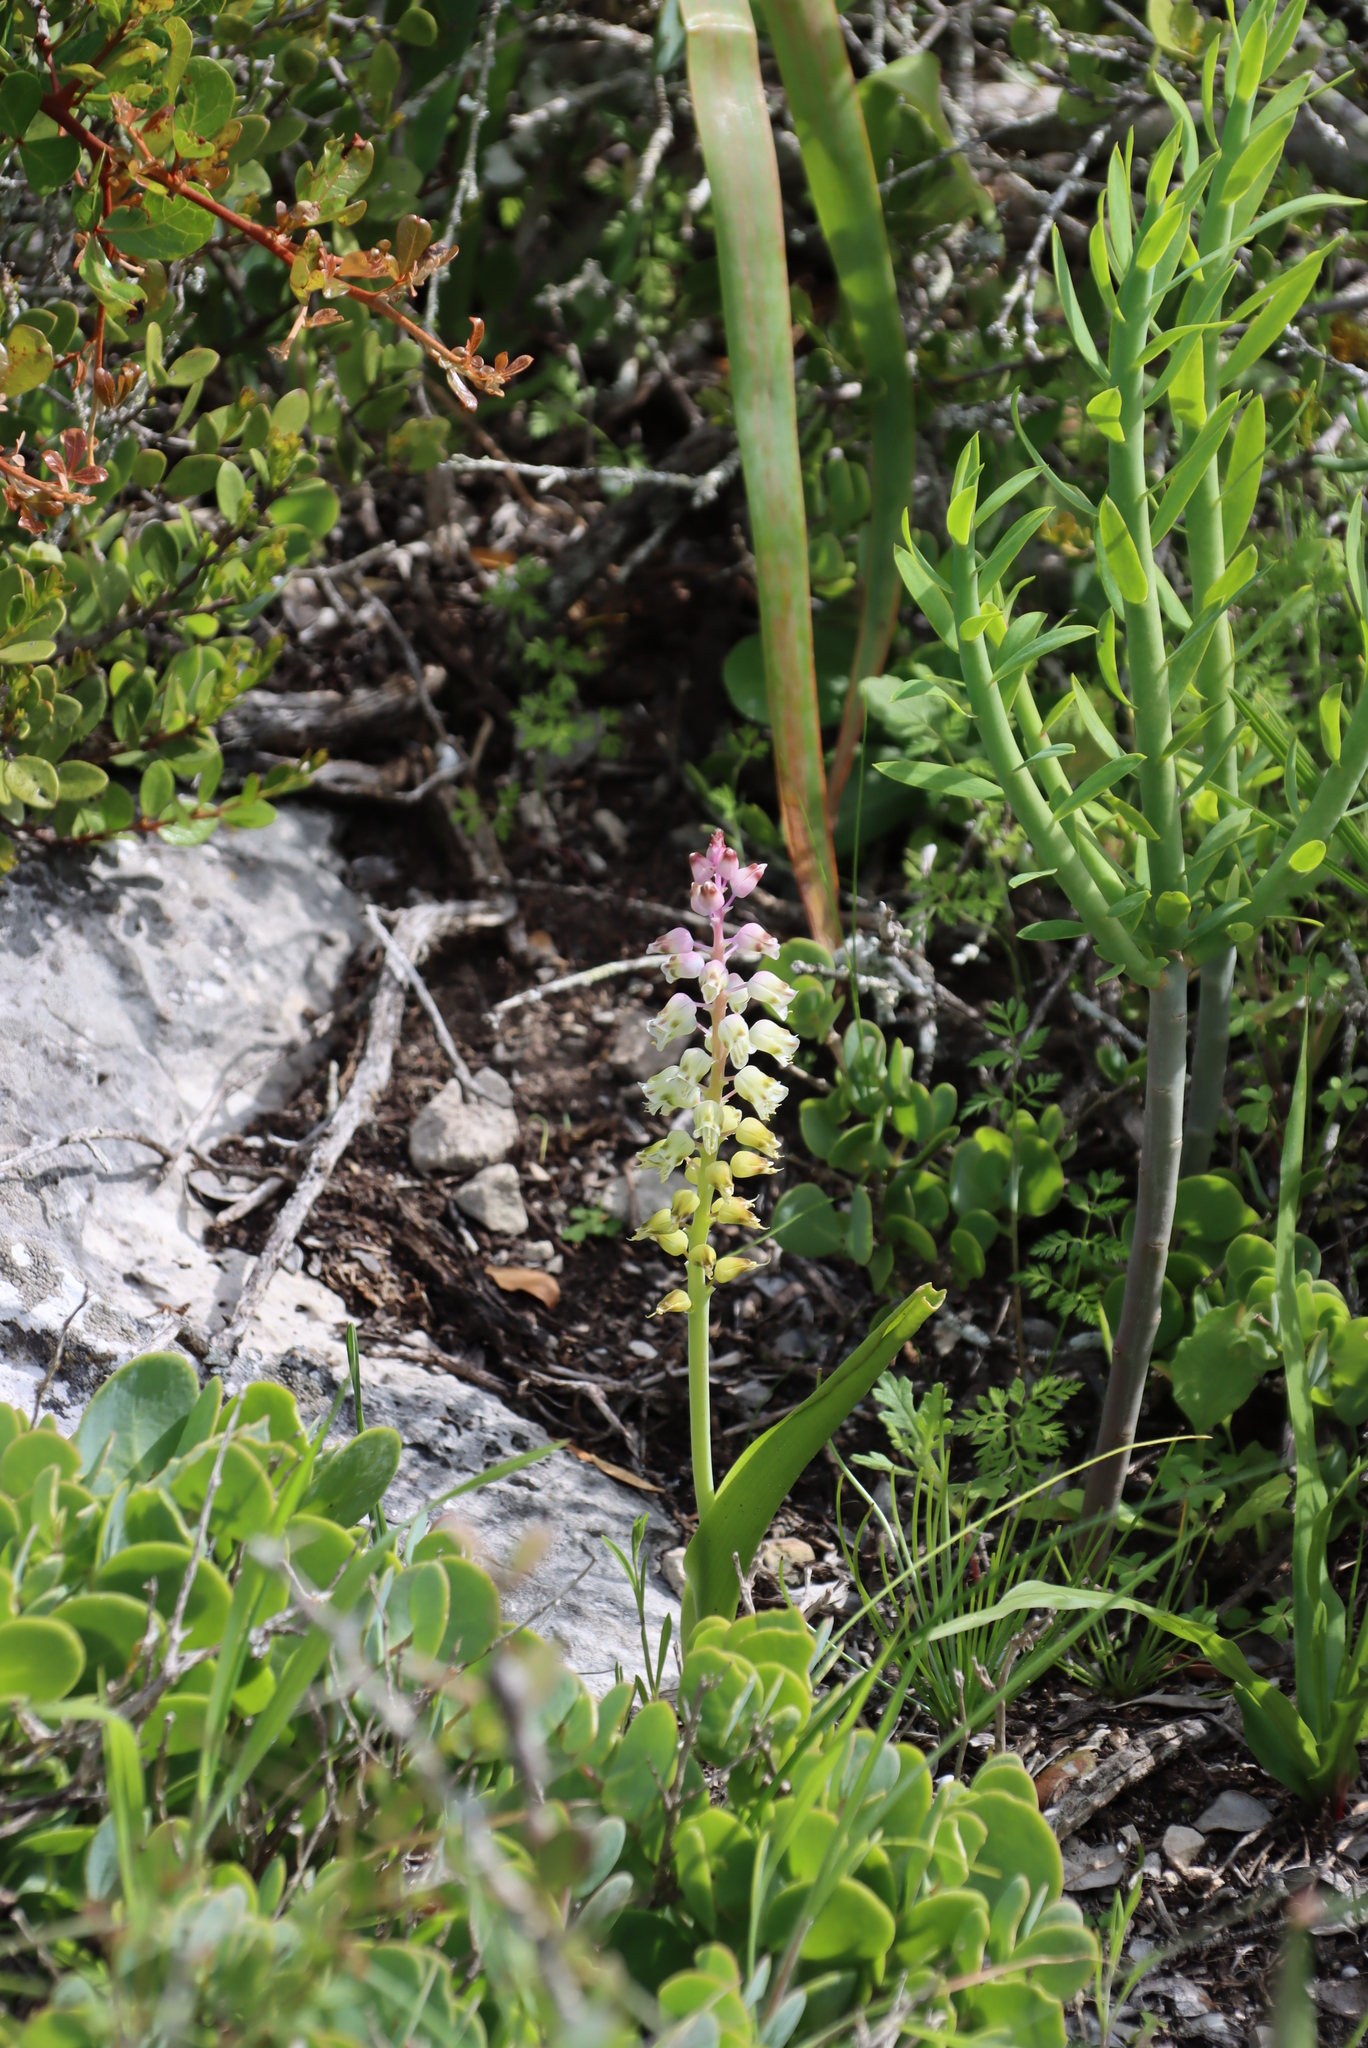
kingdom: Plantae
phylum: Tracheophyta
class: Liliopsida
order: Asparagales
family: Asparagaceae
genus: Lachenalia
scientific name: Lachenalia pallida
